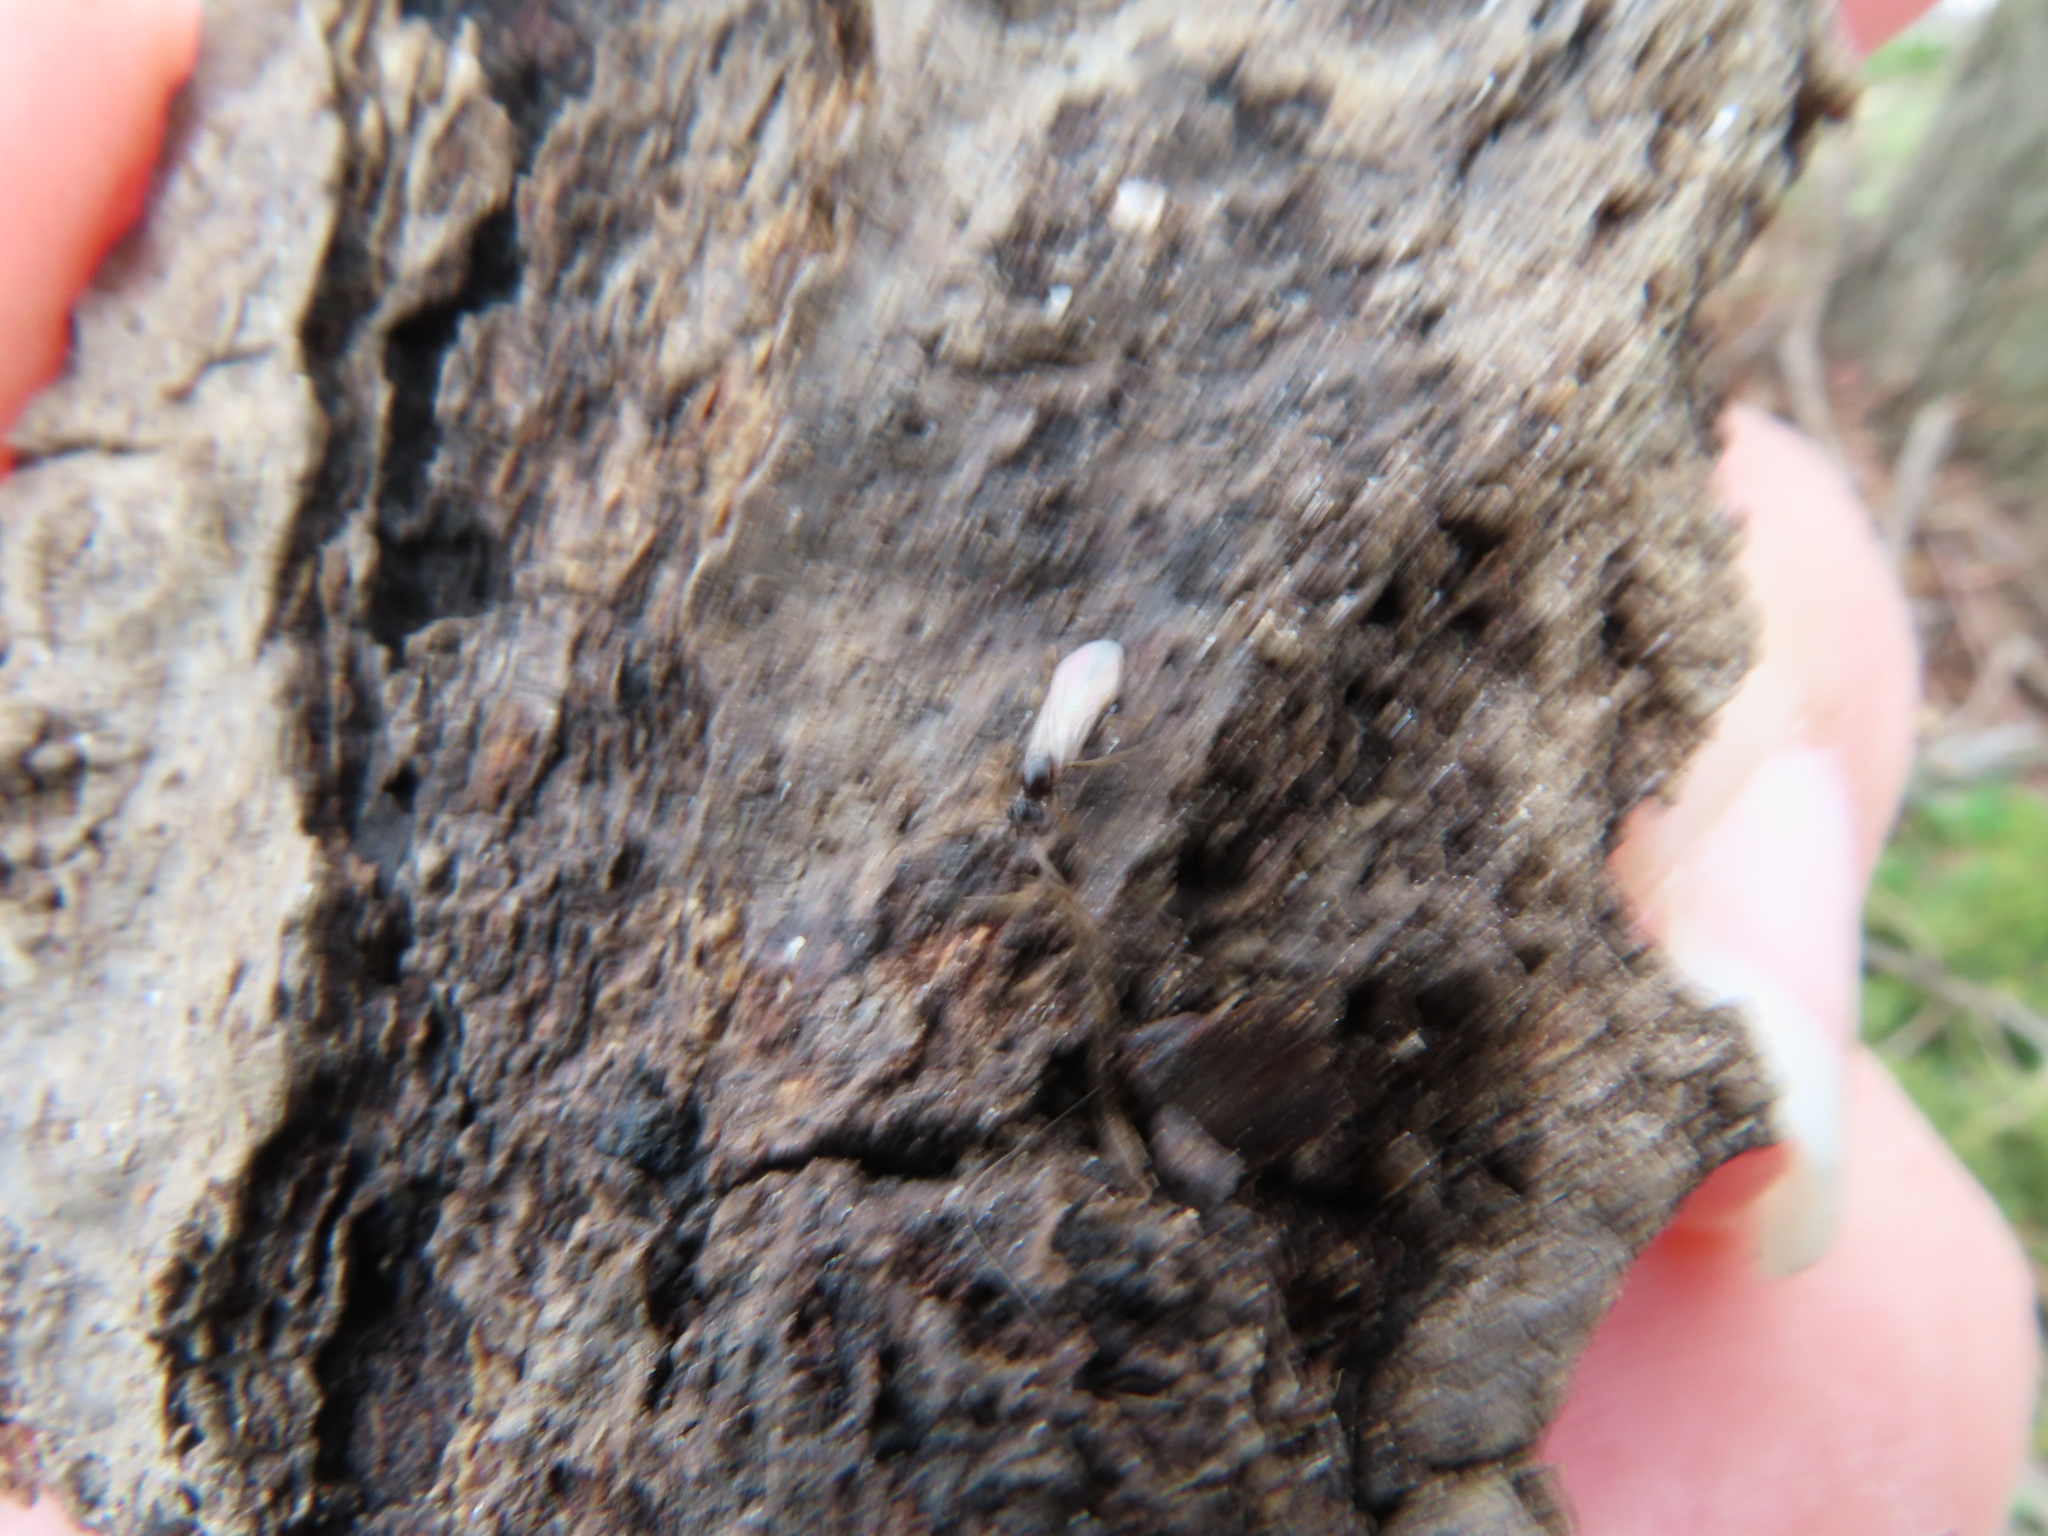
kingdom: Animalia
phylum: Arthropoda
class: Insecta
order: Hymenoptera
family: Formicidae
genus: Prenolepis
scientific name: Prenolepis imparis
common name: Small honey ant
